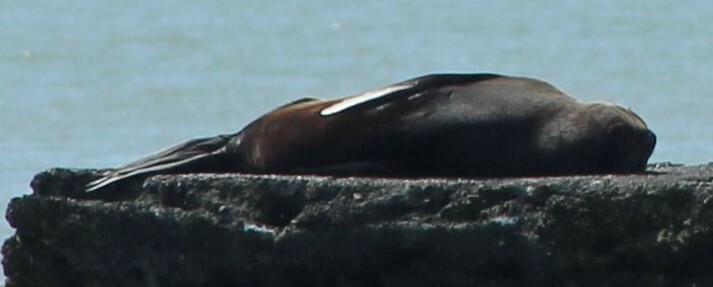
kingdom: Animalia
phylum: Chordata
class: Mammalia
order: Carnivora
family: Otariidae
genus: Arctocephalus
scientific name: Arctocephalus forsteri
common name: New zealand fur seal
